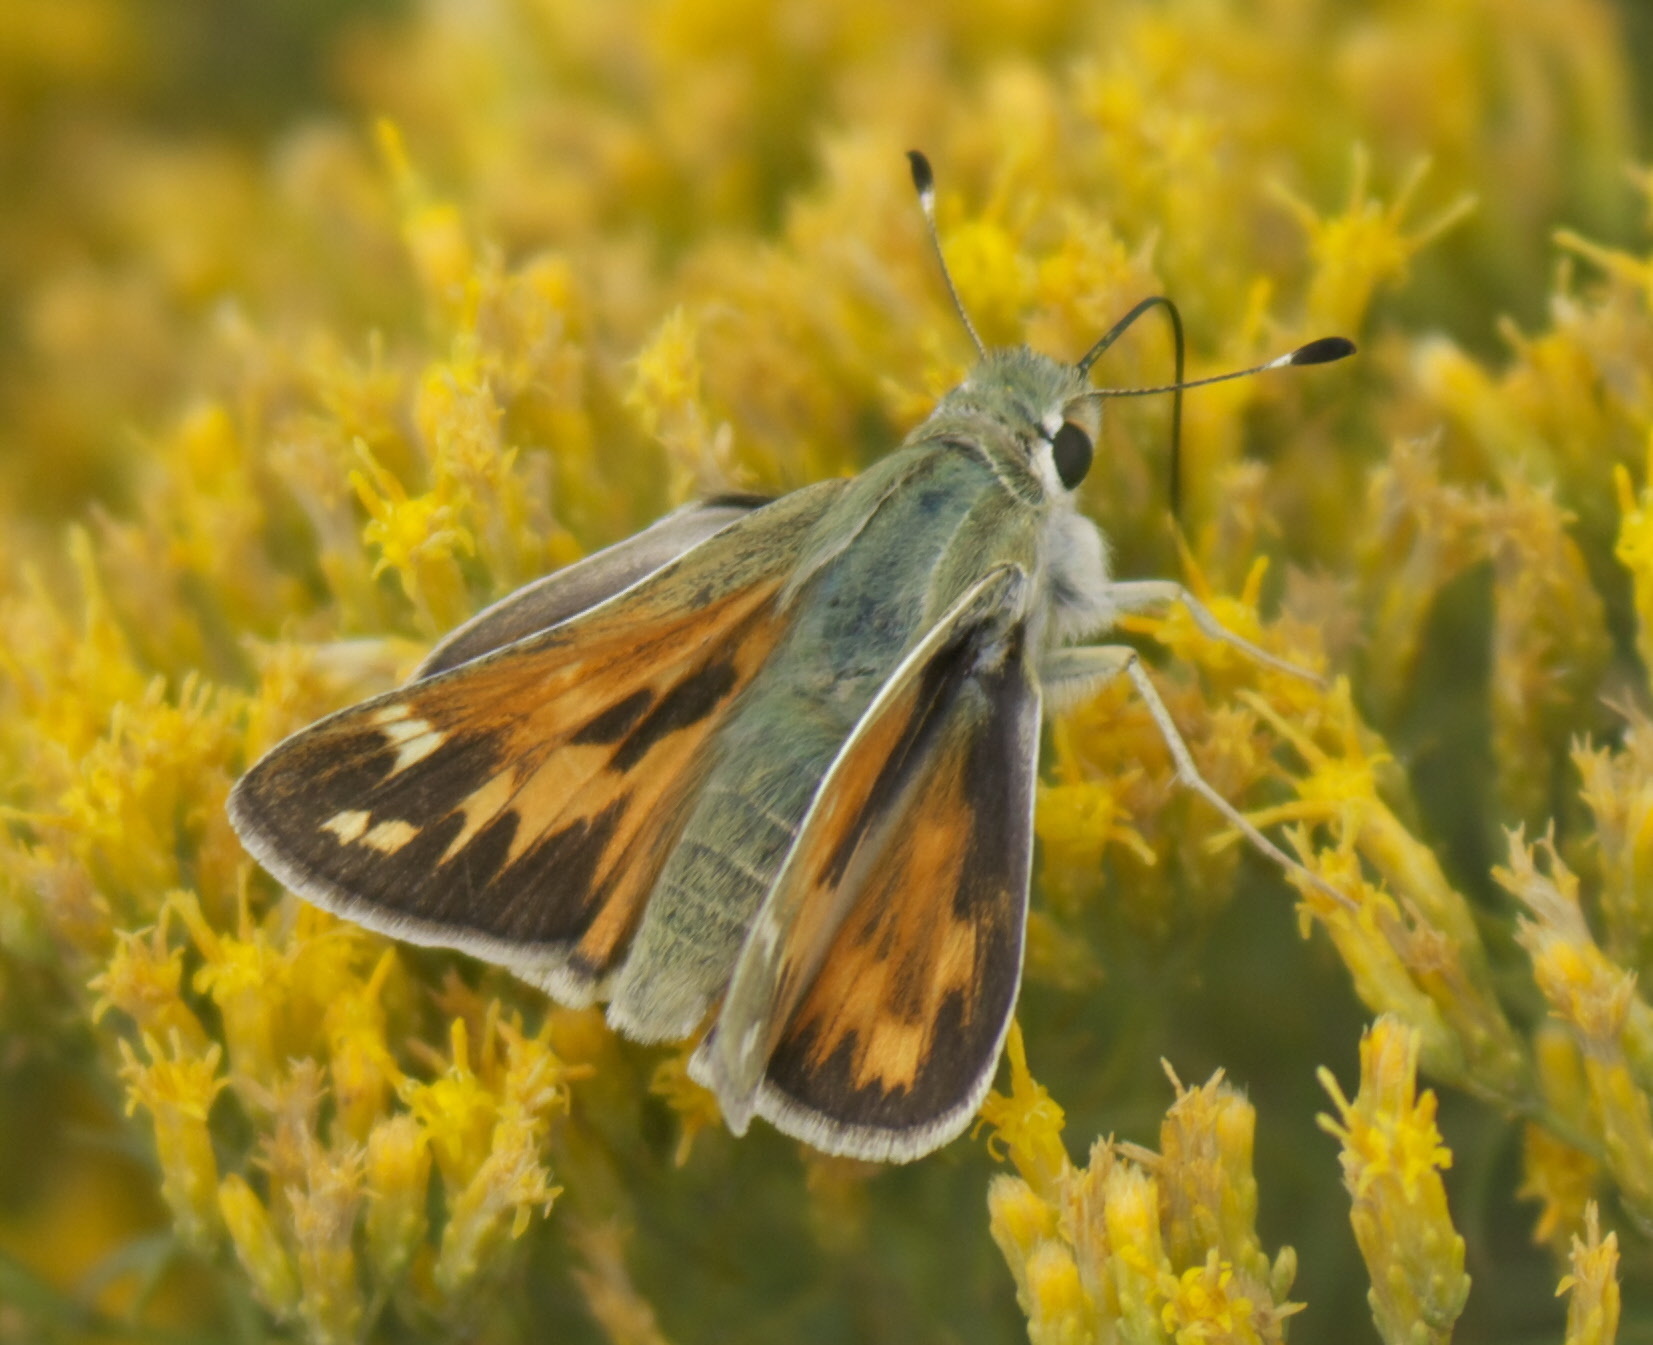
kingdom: Animalia
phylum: Arthropoda
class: Insecta
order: Lepidoptera
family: Hesperiidae
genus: Hesperia
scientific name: Hesperia juba
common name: Juba skipper
